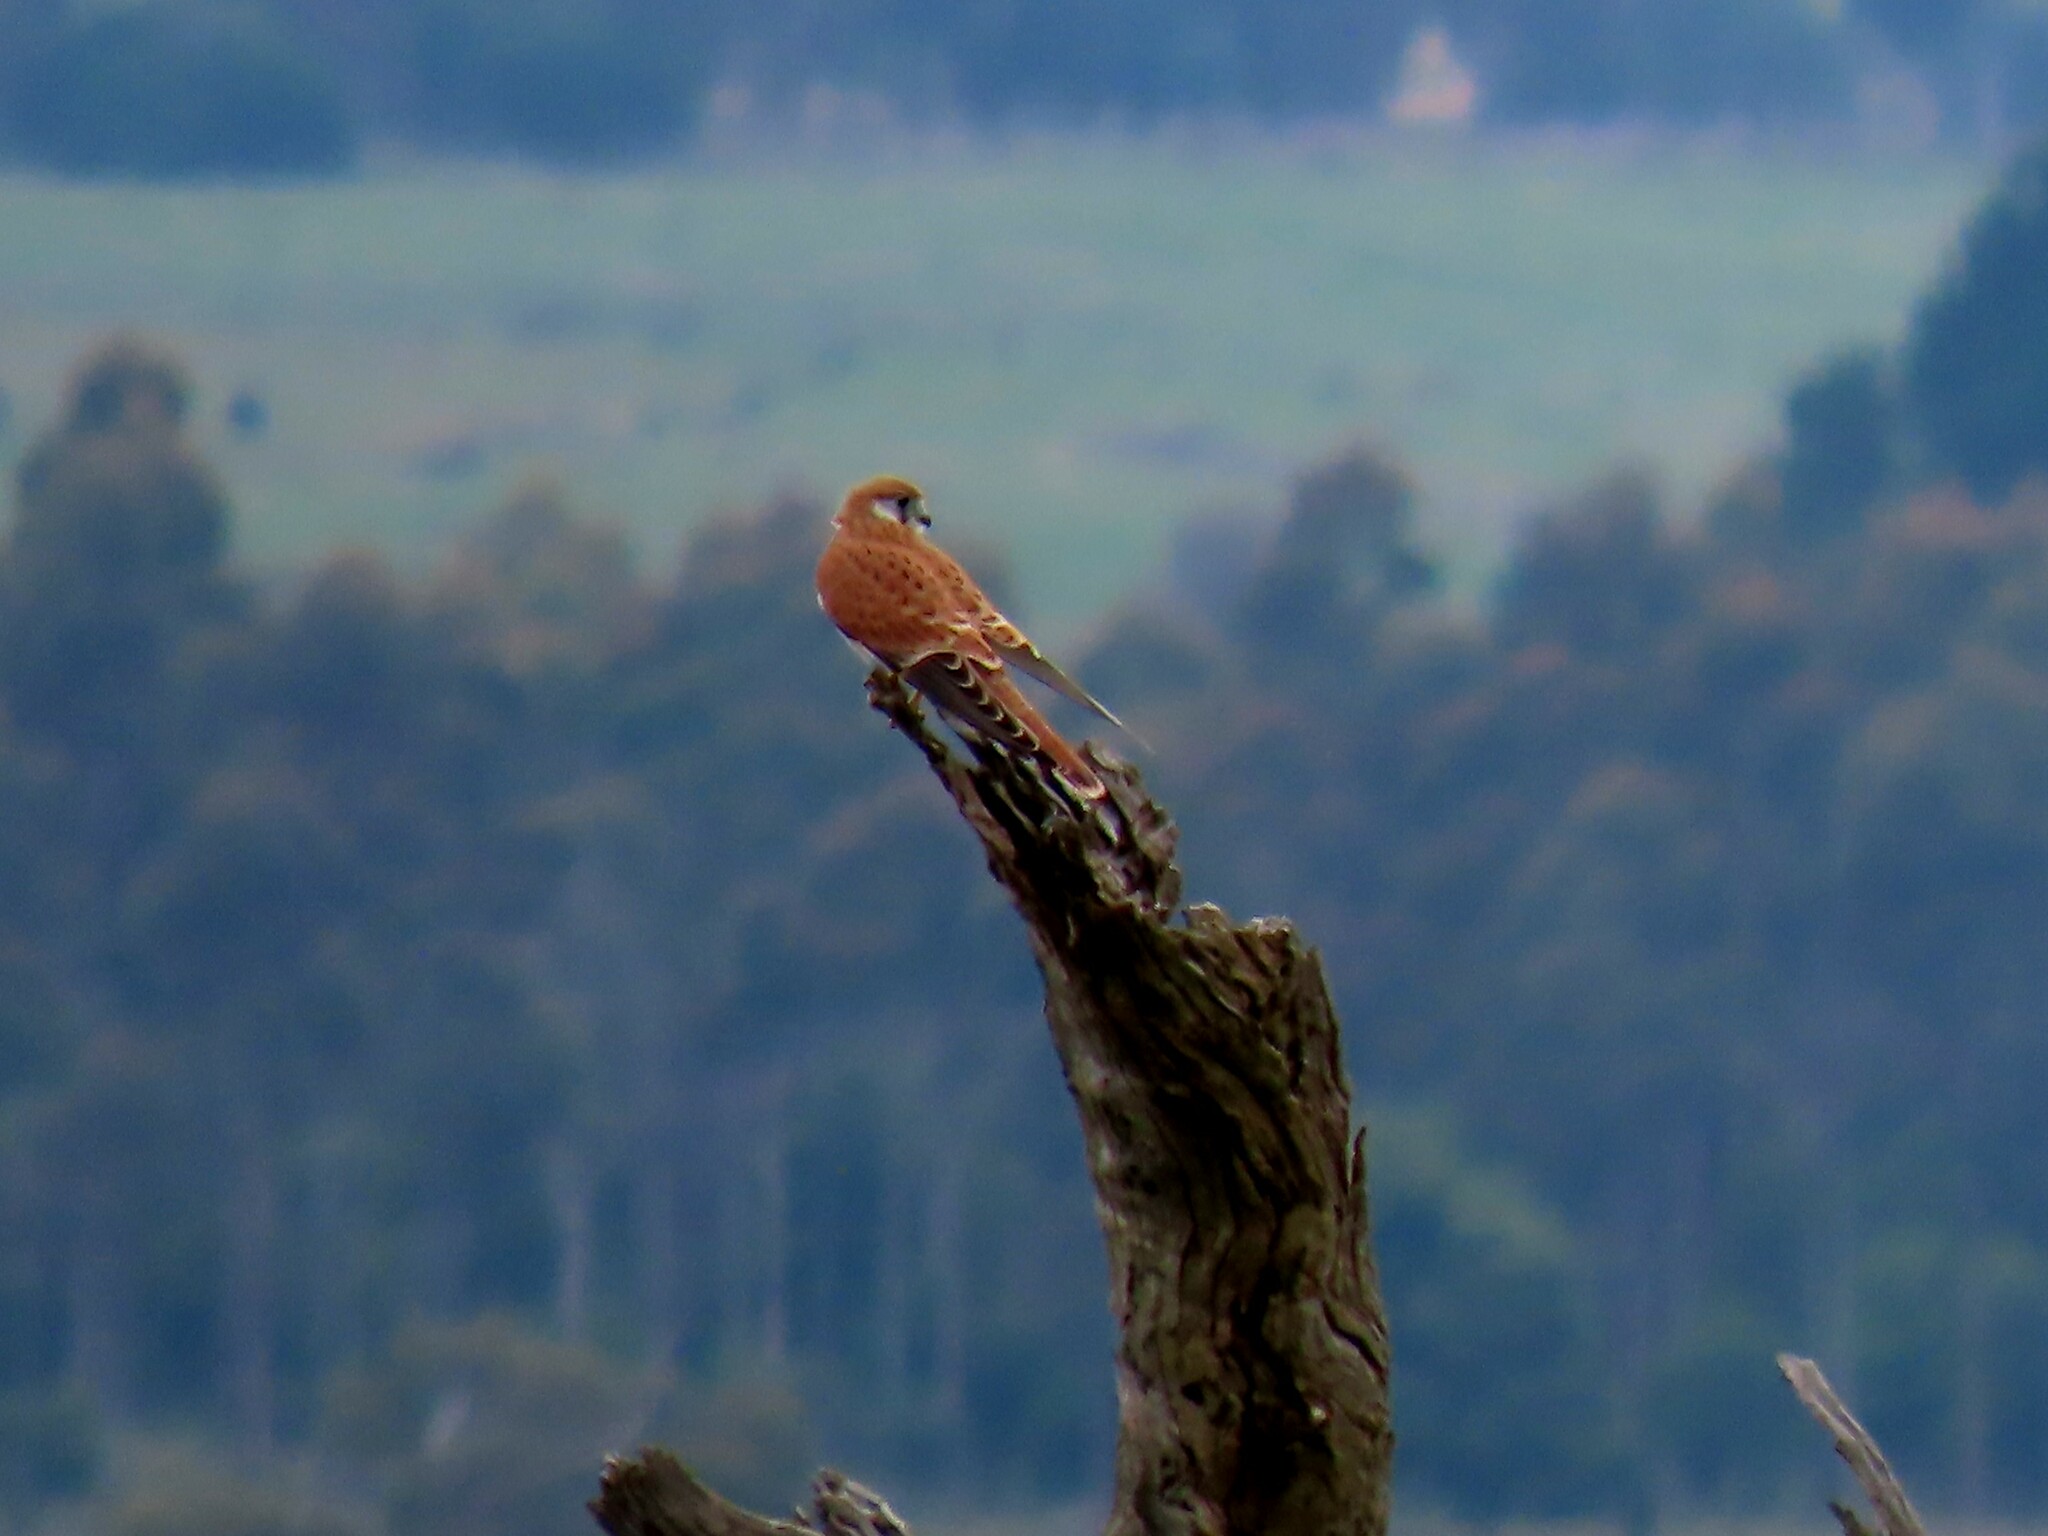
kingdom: Animalia
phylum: Chordata
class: Aves
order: Falconiformes
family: Falconidae
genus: Falco
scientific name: Falco cenchroides
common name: Nankeen kestrel
